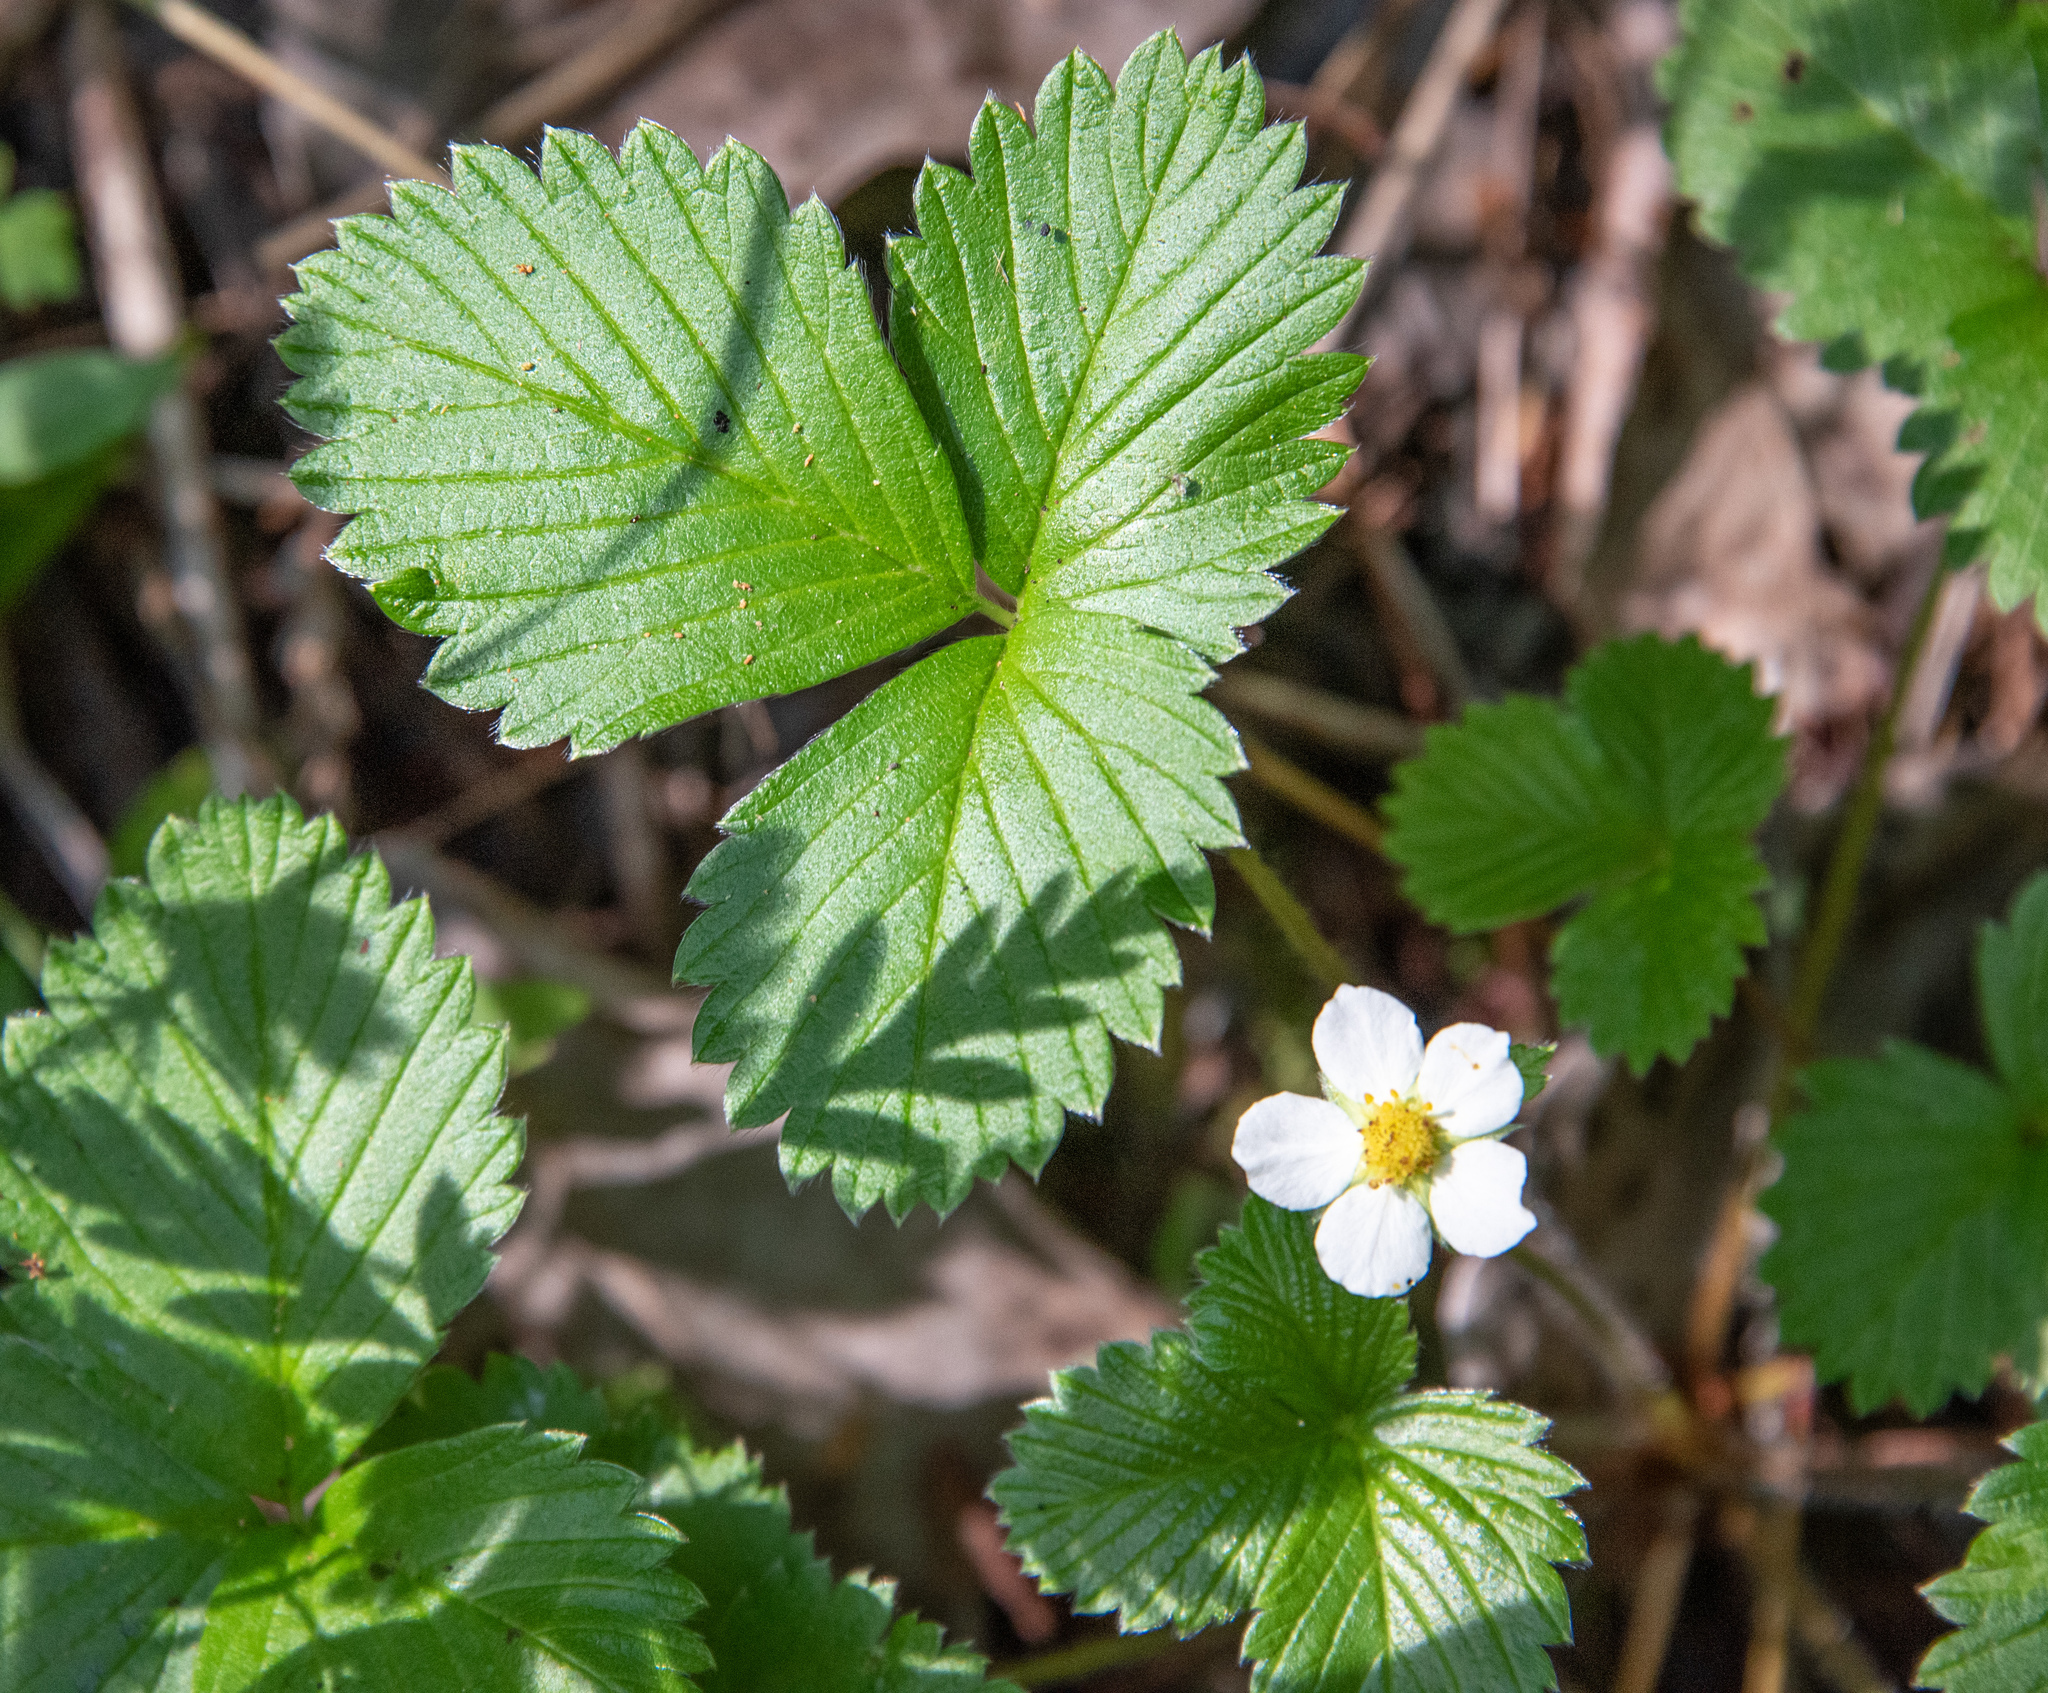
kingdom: Plantae
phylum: Tracheophyta
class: Magnoliopsida
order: Rosales
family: Rosaceae
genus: Fragaria
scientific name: Fragaria vesca
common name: Wild strawberry
